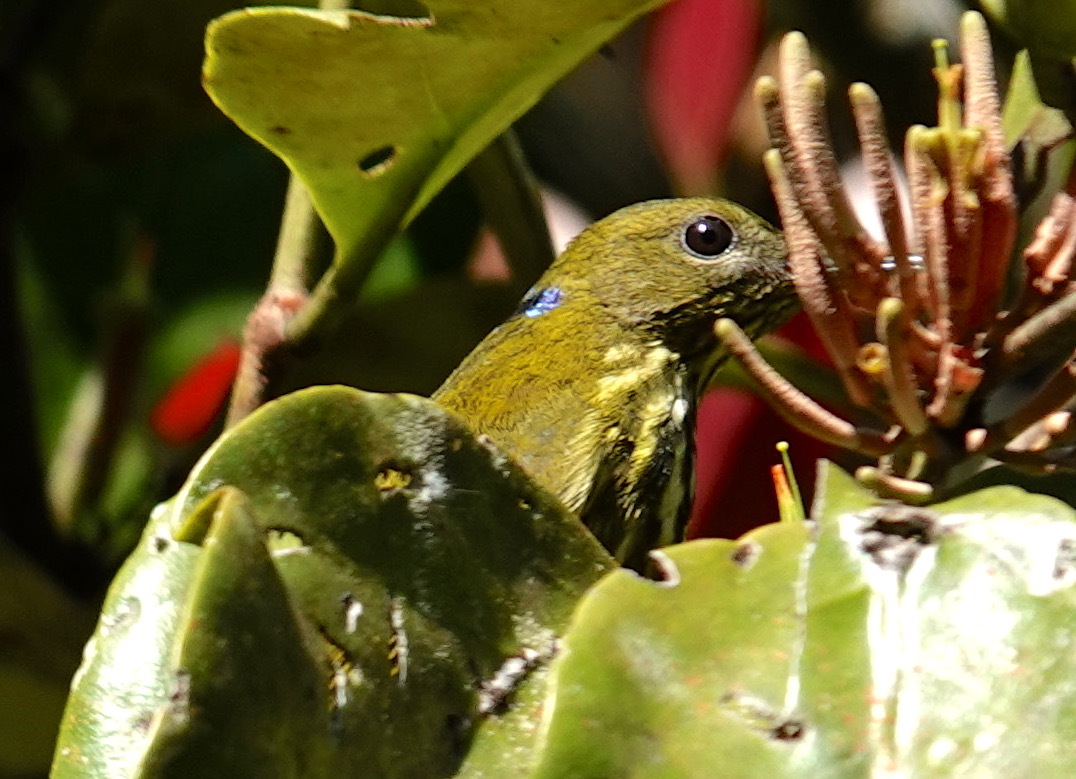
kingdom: Animalia
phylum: Chordata
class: Aves
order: Passeriformes
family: Nectariniidae
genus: Hypogramma
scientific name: Hypogramma hypogrammicum
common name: Purple-naped sunbird
